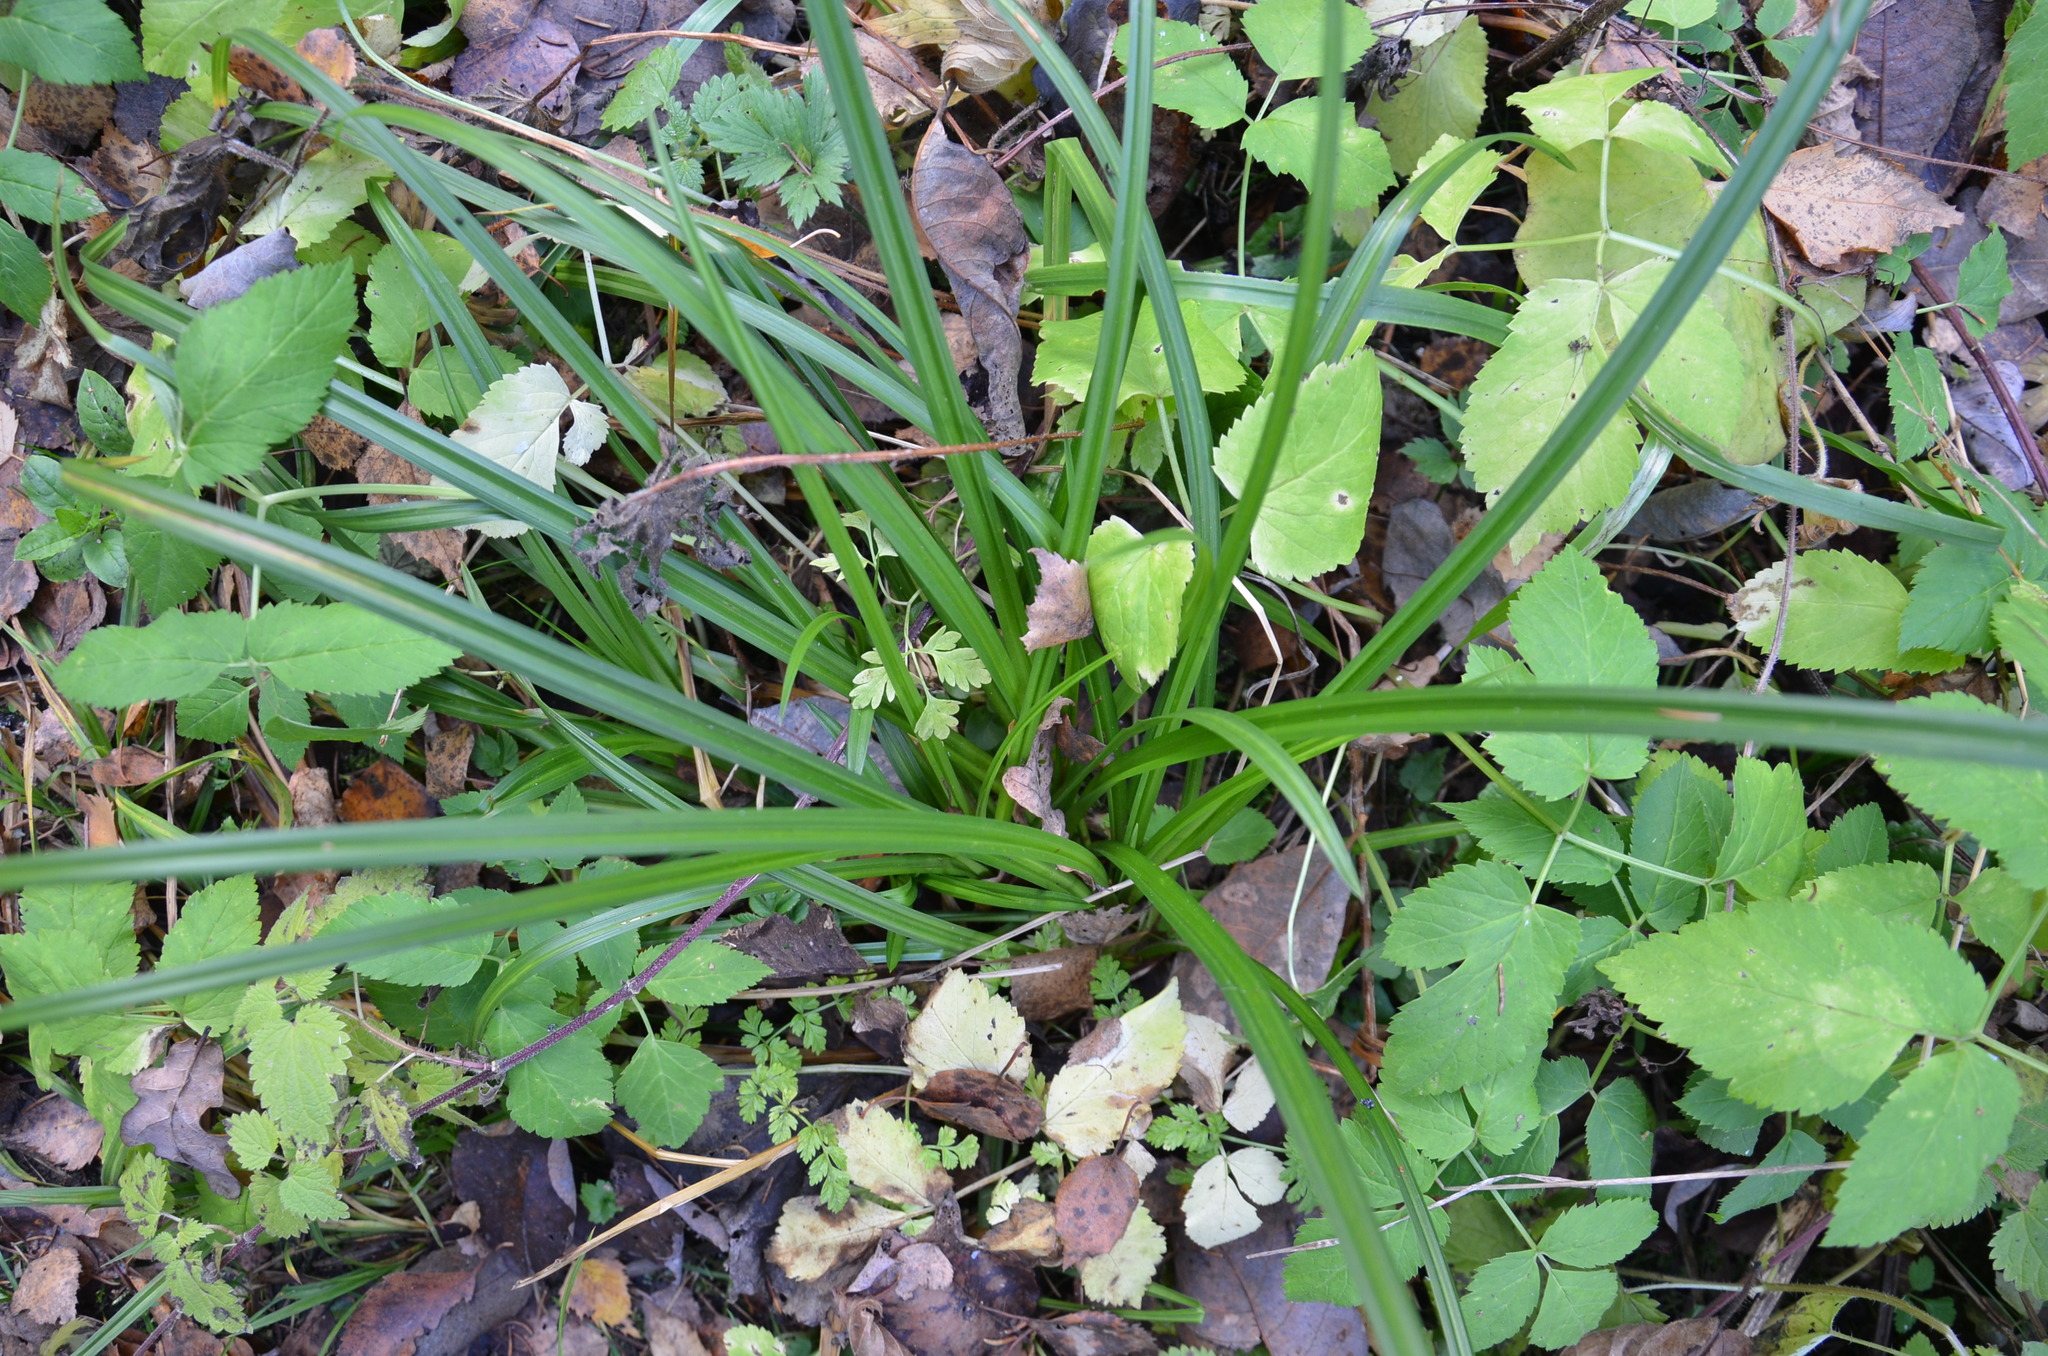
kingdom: Plantae
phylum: Tracheophyta
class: Liliopsida
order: Poales
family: Cyperaceae
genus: Carex
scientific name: Carex sylvatica
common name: Wood-sedge
